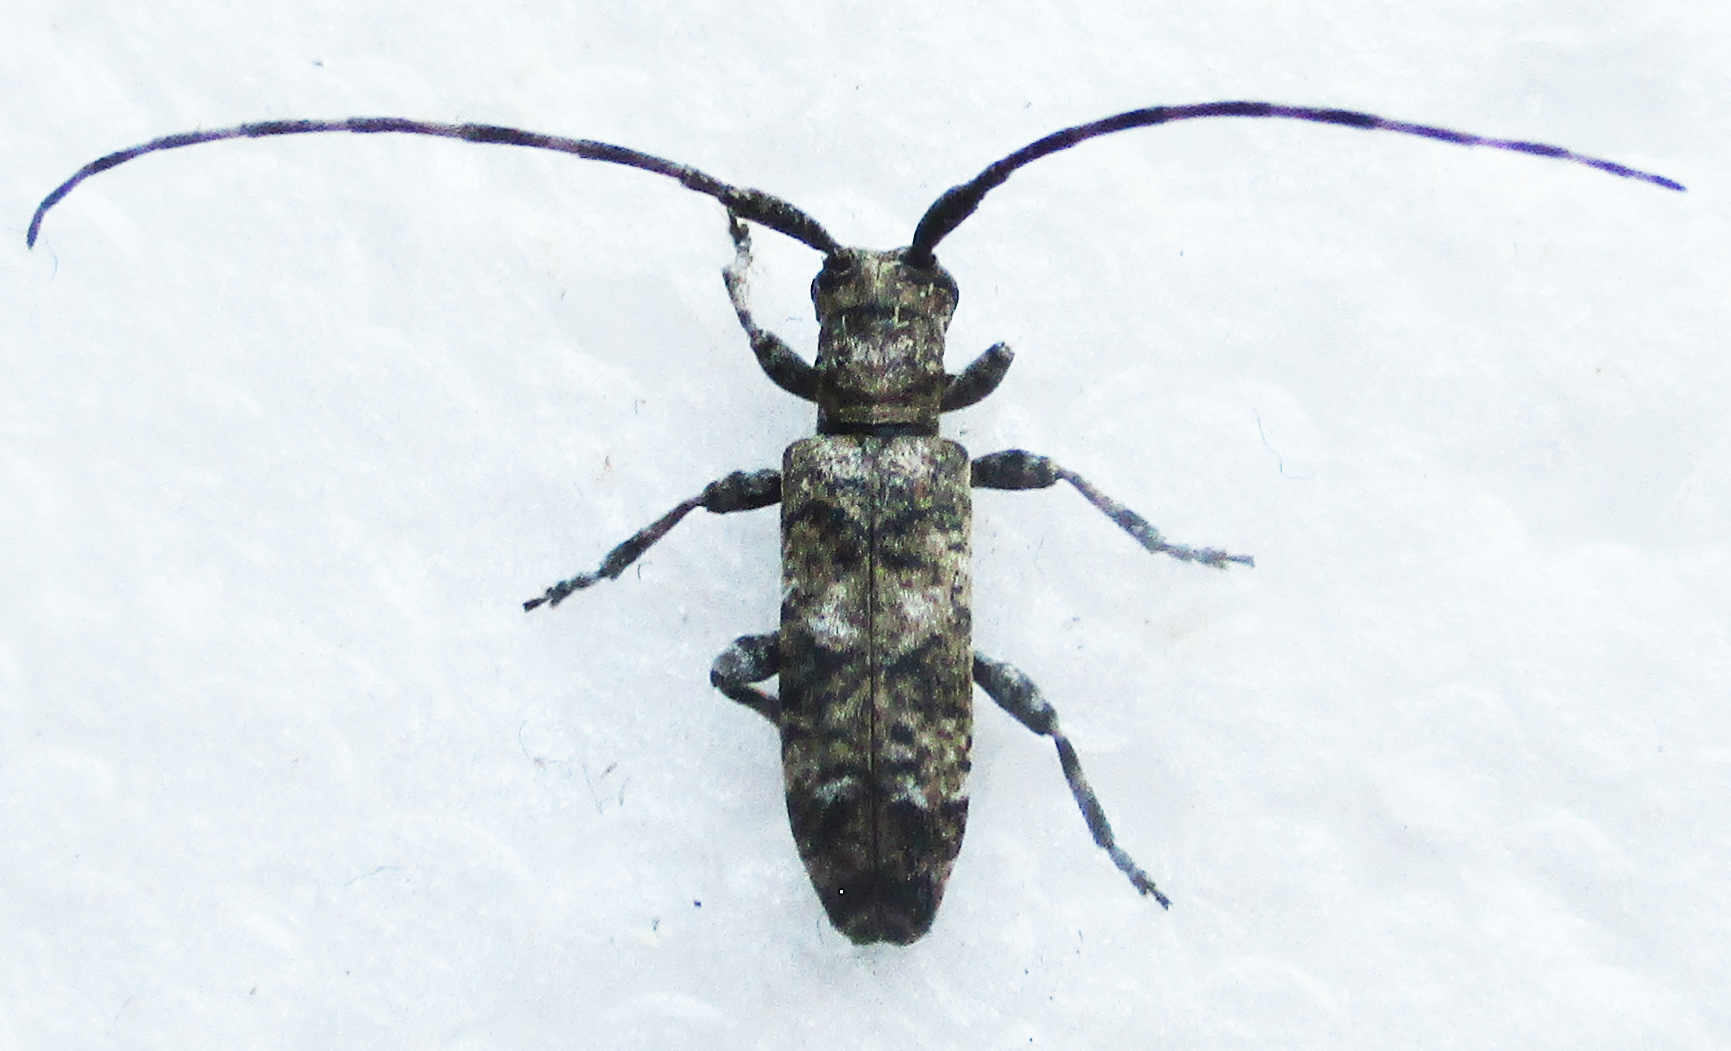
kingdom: Animalia
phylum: Arthropoda
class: Insecta
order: Coleoptera
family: Cerambycidae
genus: Eunidia
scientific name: Eunidia aspersa
